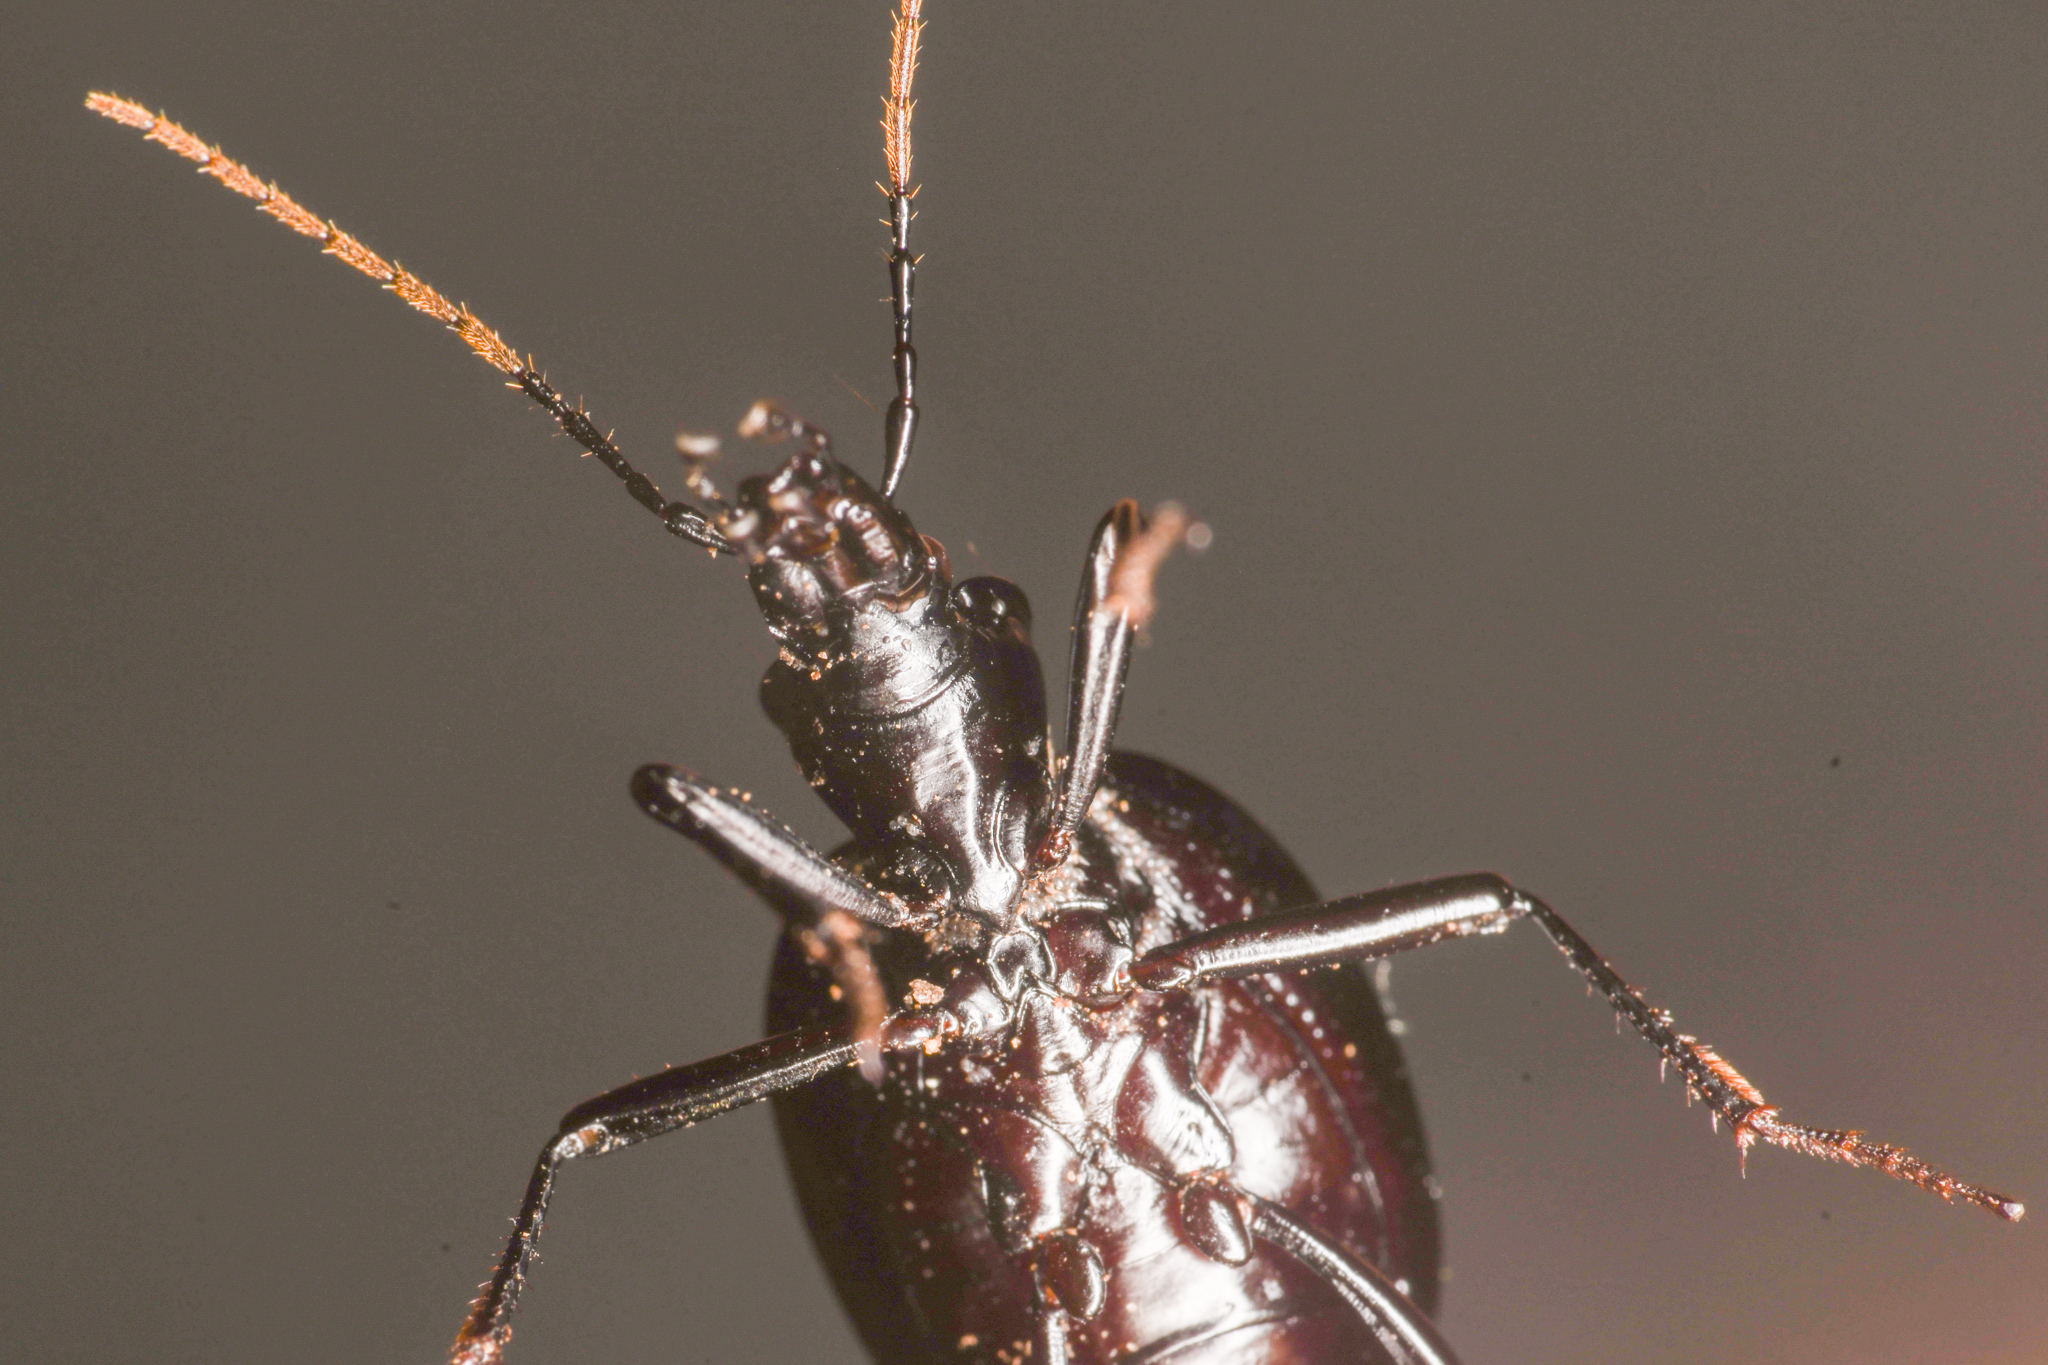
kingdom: Animalia
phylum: Arthropoda
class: Insecta
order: Coleoptera
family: Carabidae
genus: Scaphinotus
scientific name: Scaphinotus punctatus
